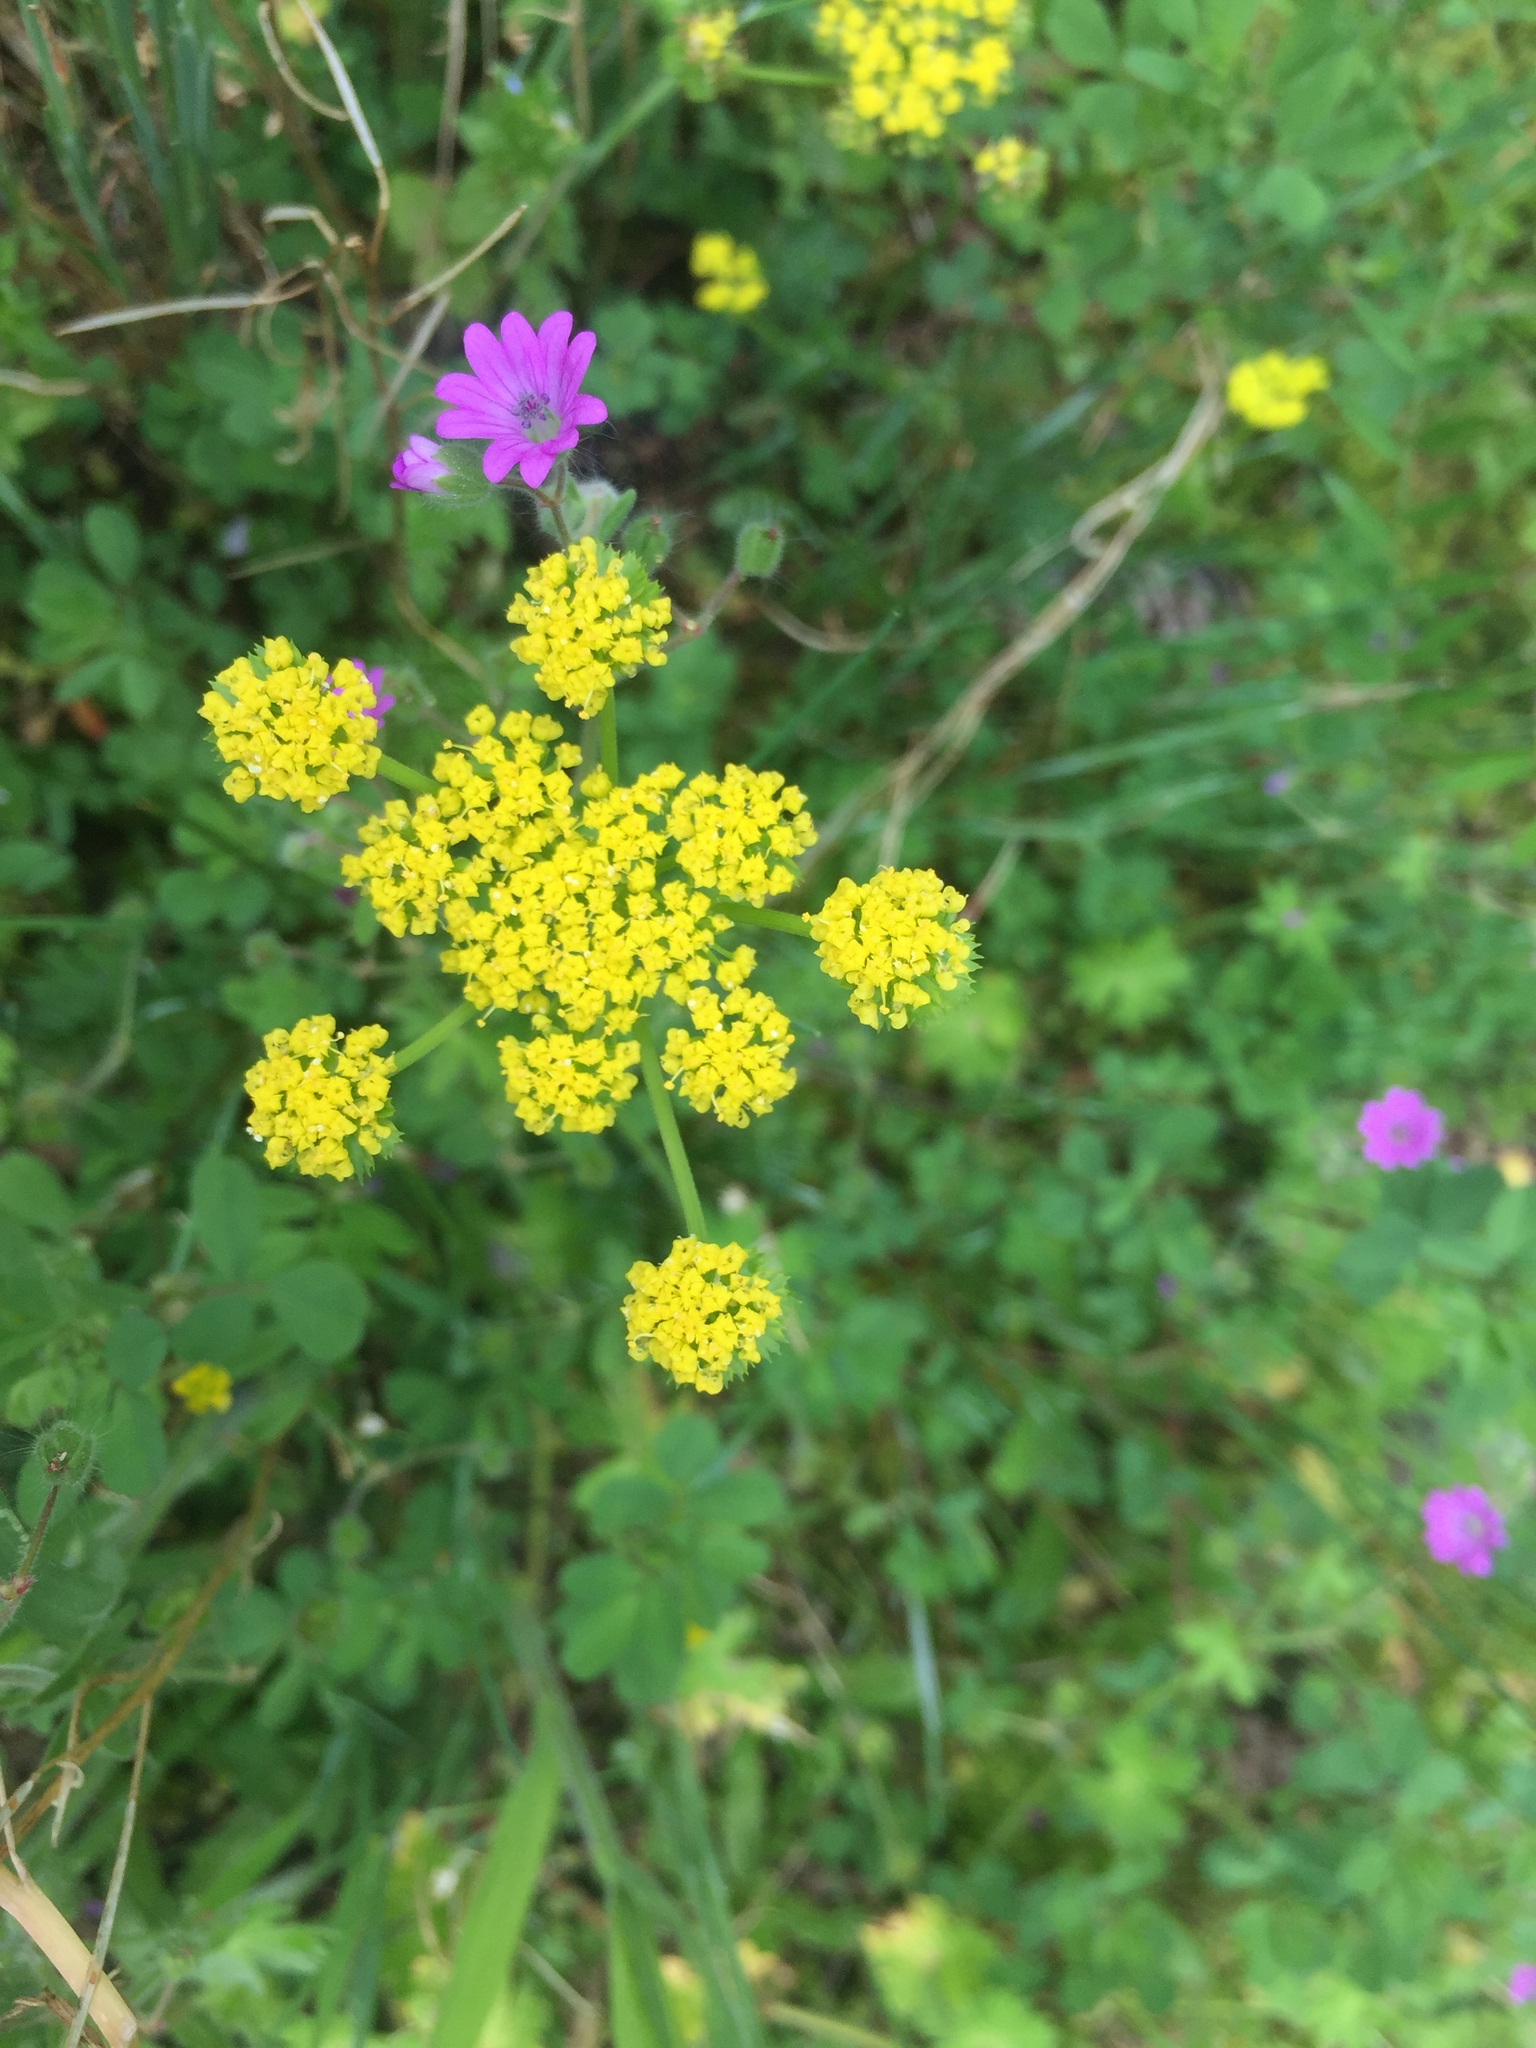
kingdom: Plantae
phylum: Tracheophyta
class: Magnoliopsida
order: Apiales
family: Apiaceae
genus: Lomatium
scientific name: Lomatium utriculatum
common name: Fine-leaf desert-parsley
